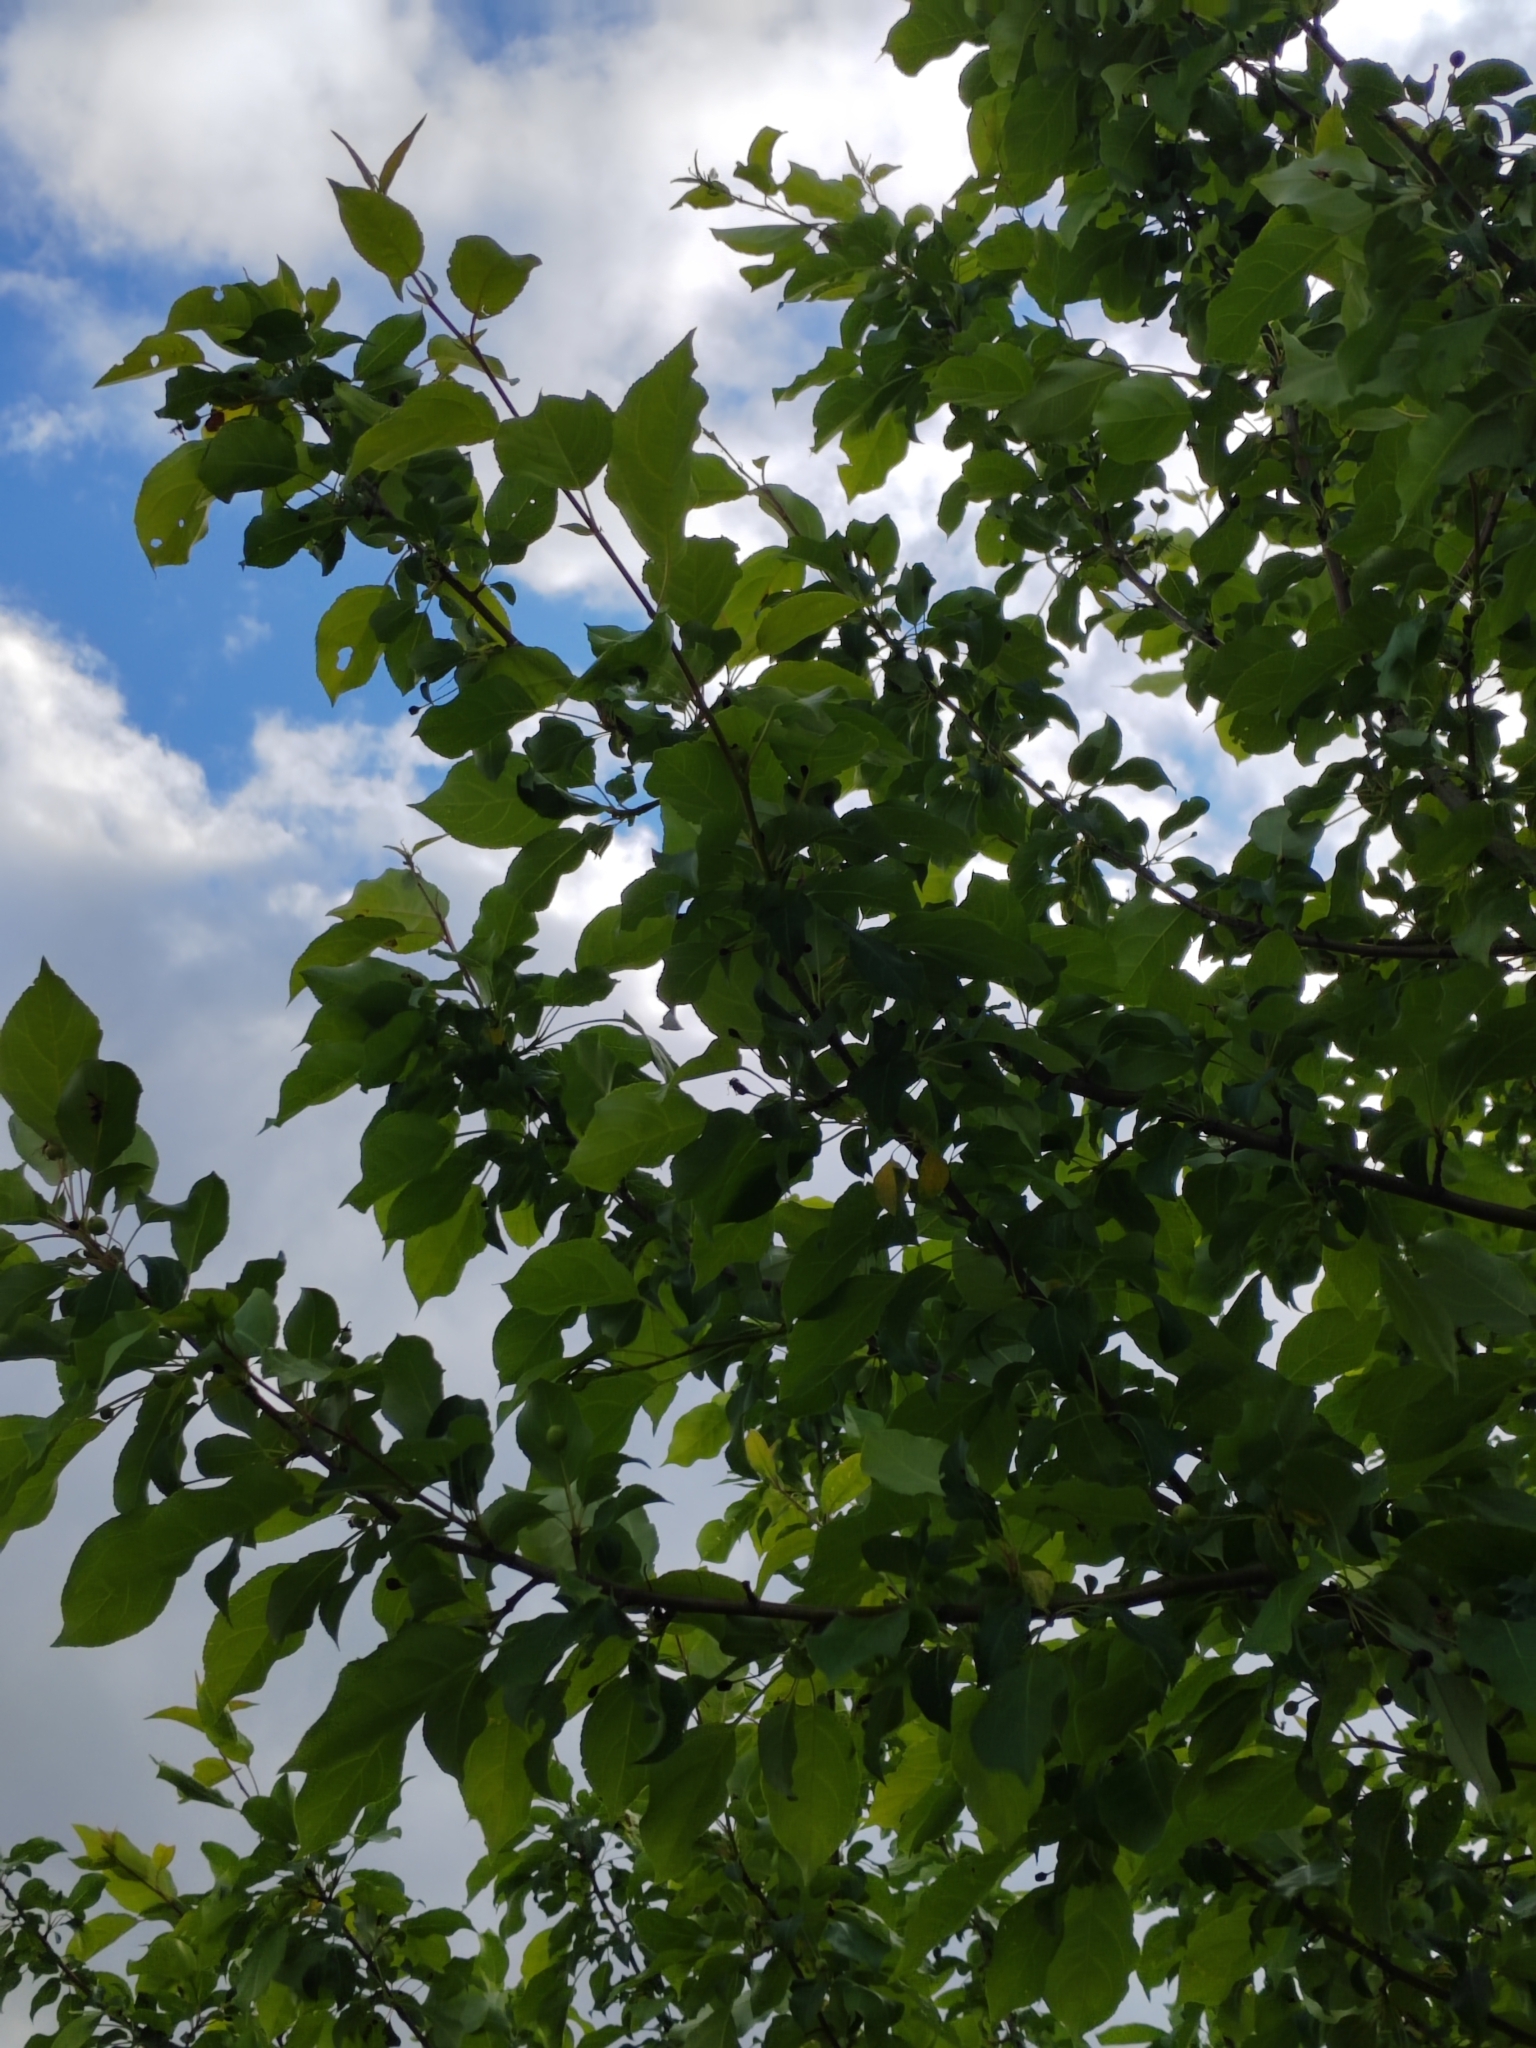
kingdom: Plantae
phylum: Tracheophyta
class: Magnoliopsida
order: Rosales
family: Rosaceae
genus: Malus
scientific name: Malus baccata
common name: Siberian crab
